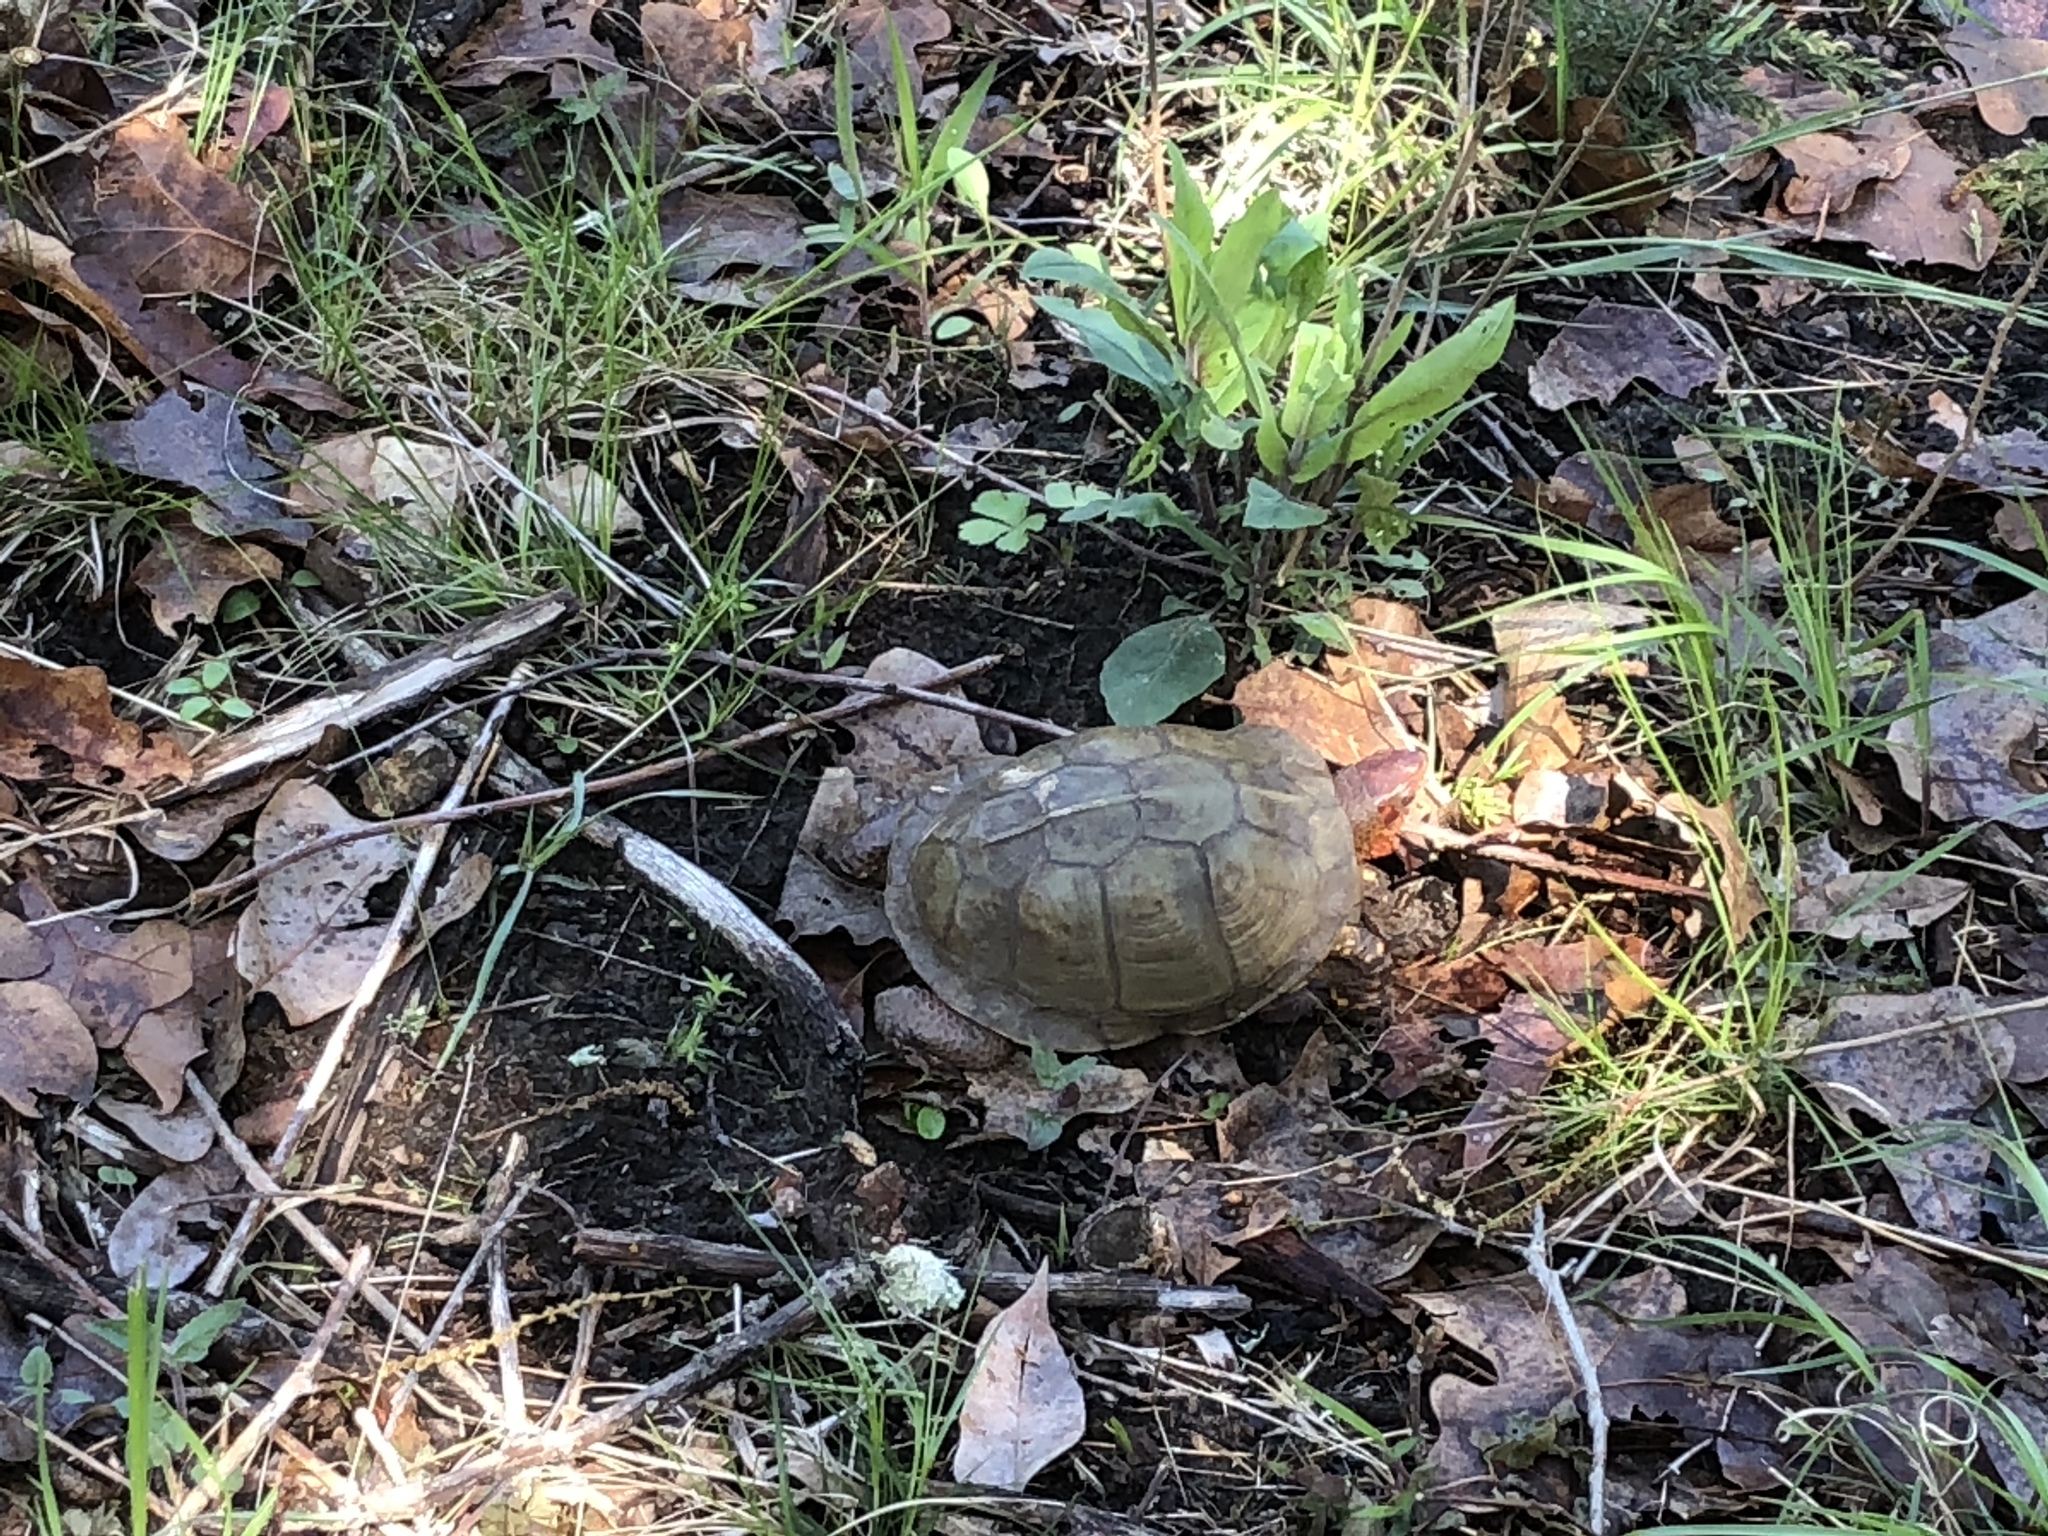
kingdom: Animalia
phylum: Chordata
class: Testudines
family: Emydidae
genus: Terrapene
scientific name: Terrapene carolina
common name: Common box turtle
